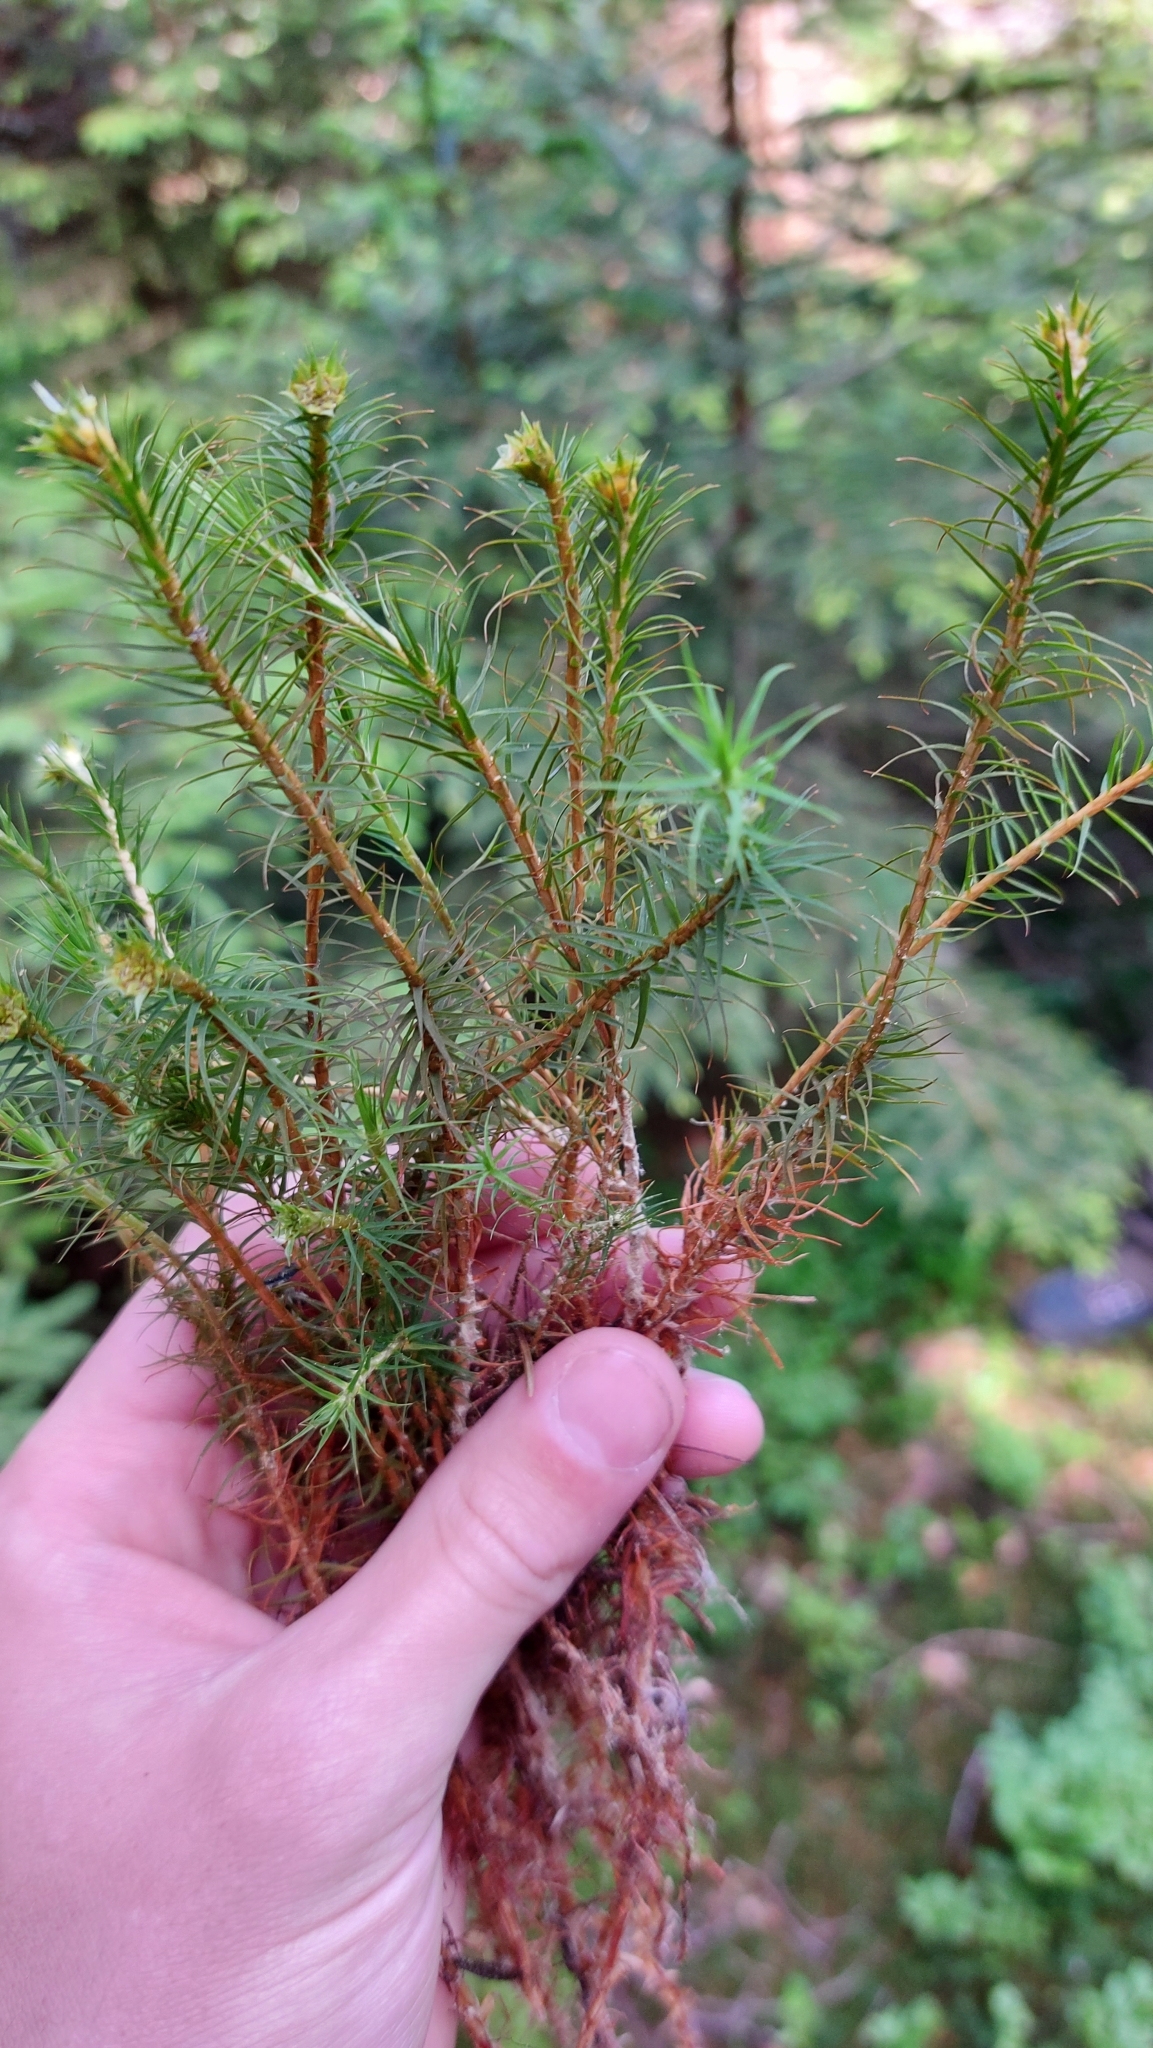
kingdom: Plantae
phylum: Bryophyta
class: Polytrichopsida
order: Polytrichales
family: Polytrichaceae
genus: Polytrichum
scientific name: Polytrichum commune
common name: Common haircap
